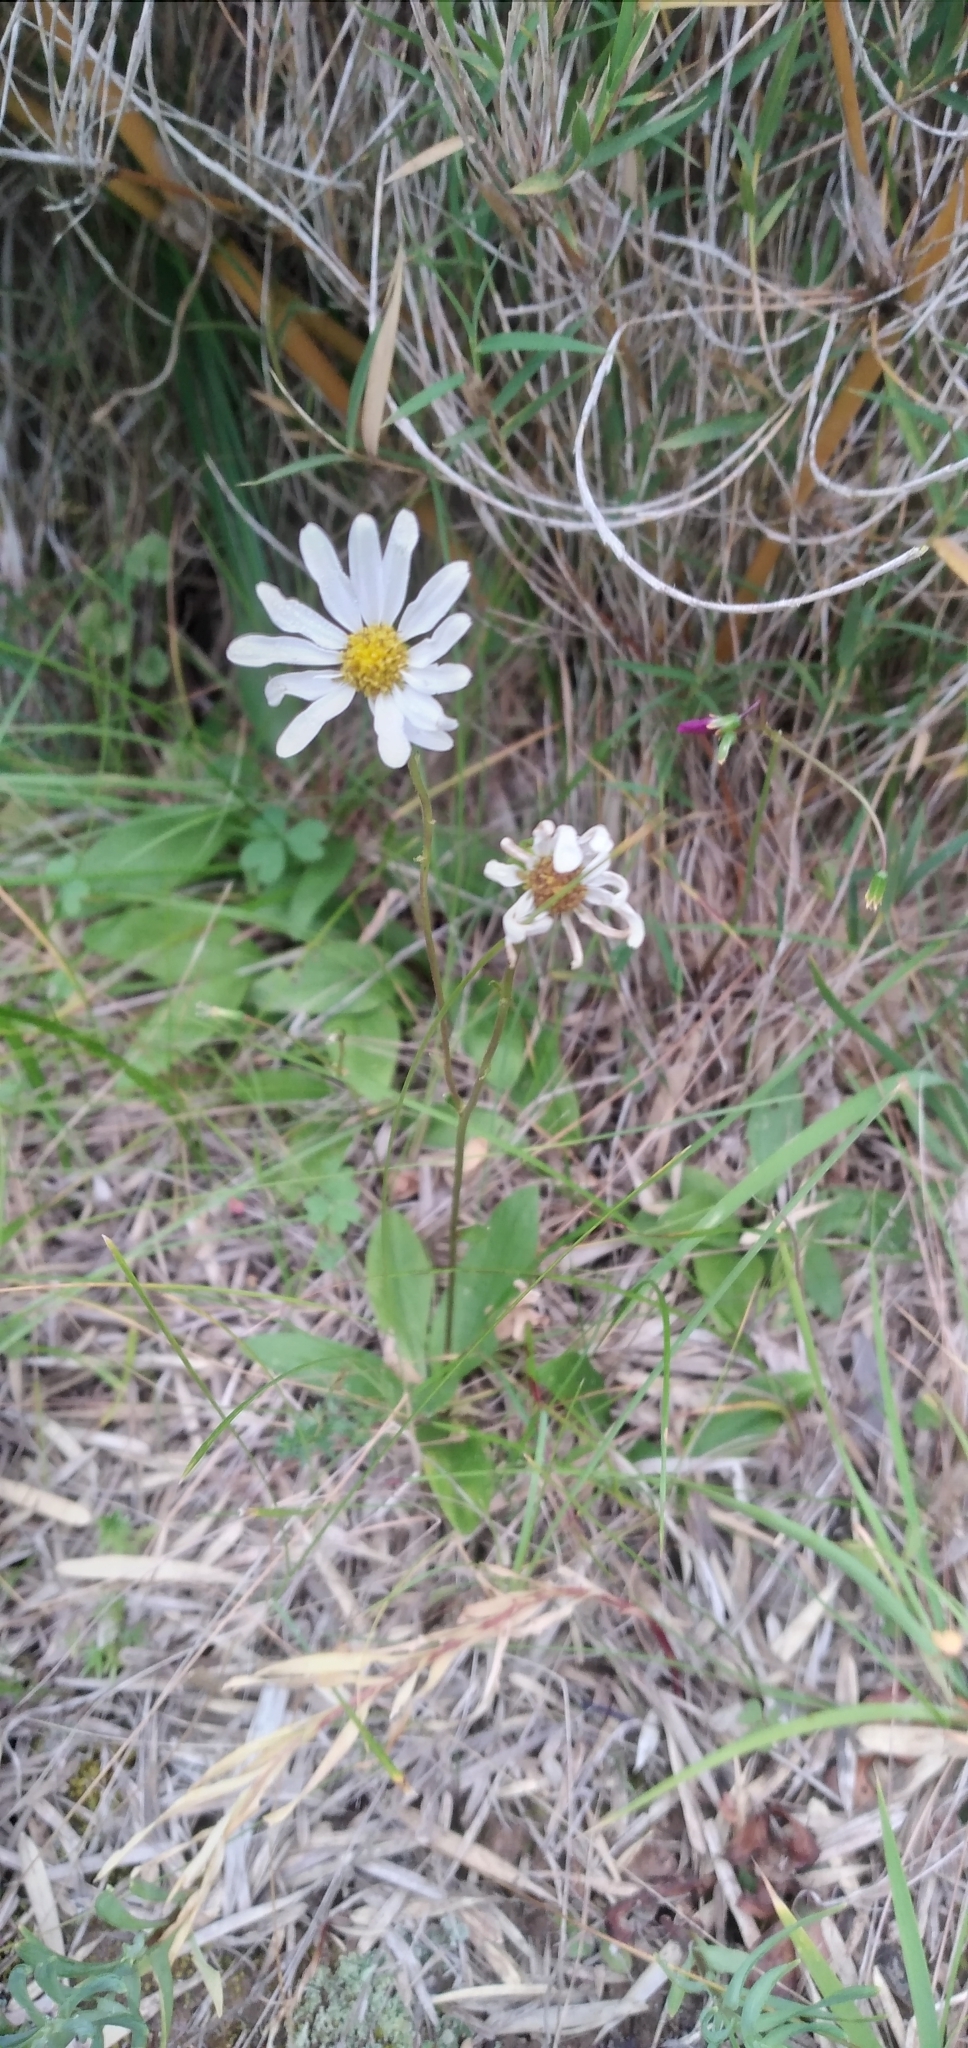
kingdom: Plantae
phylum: Tracheophyta
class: Magnoliopsida
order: Asterales
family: Asteraceae
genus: Senecio
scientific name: Senecio arnicoides
